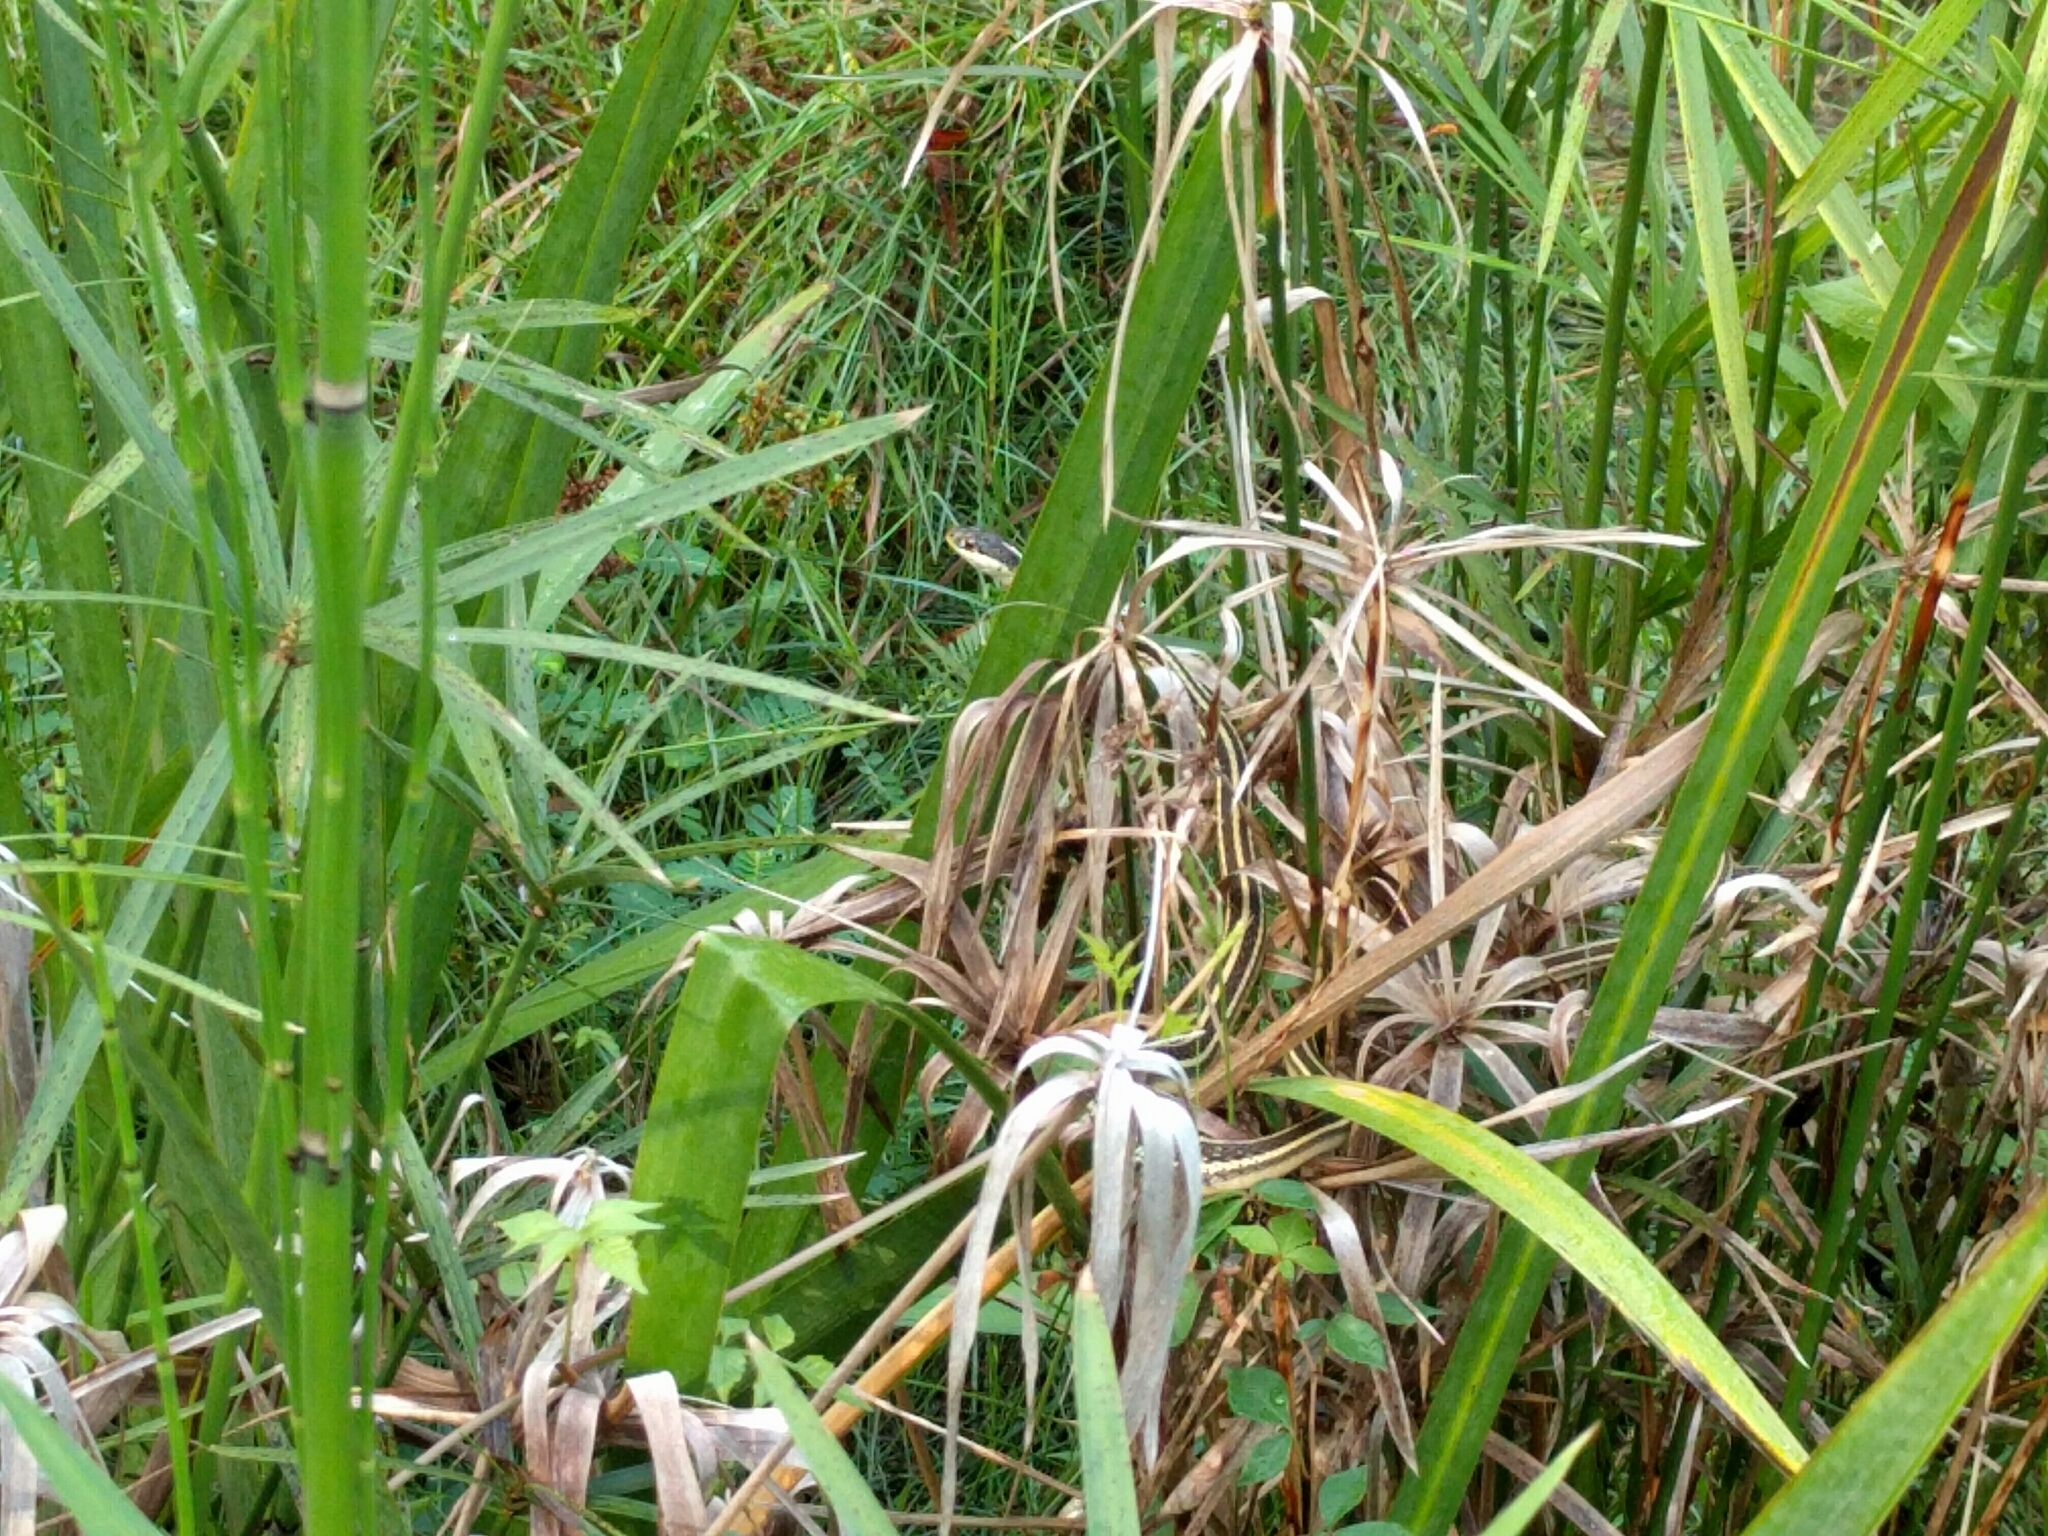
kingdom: Animalia
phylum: Chordata
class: Squamata
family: Colubridae
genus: Thamnophis
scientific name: Thamnophis proximus
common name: Western ribbon snake
